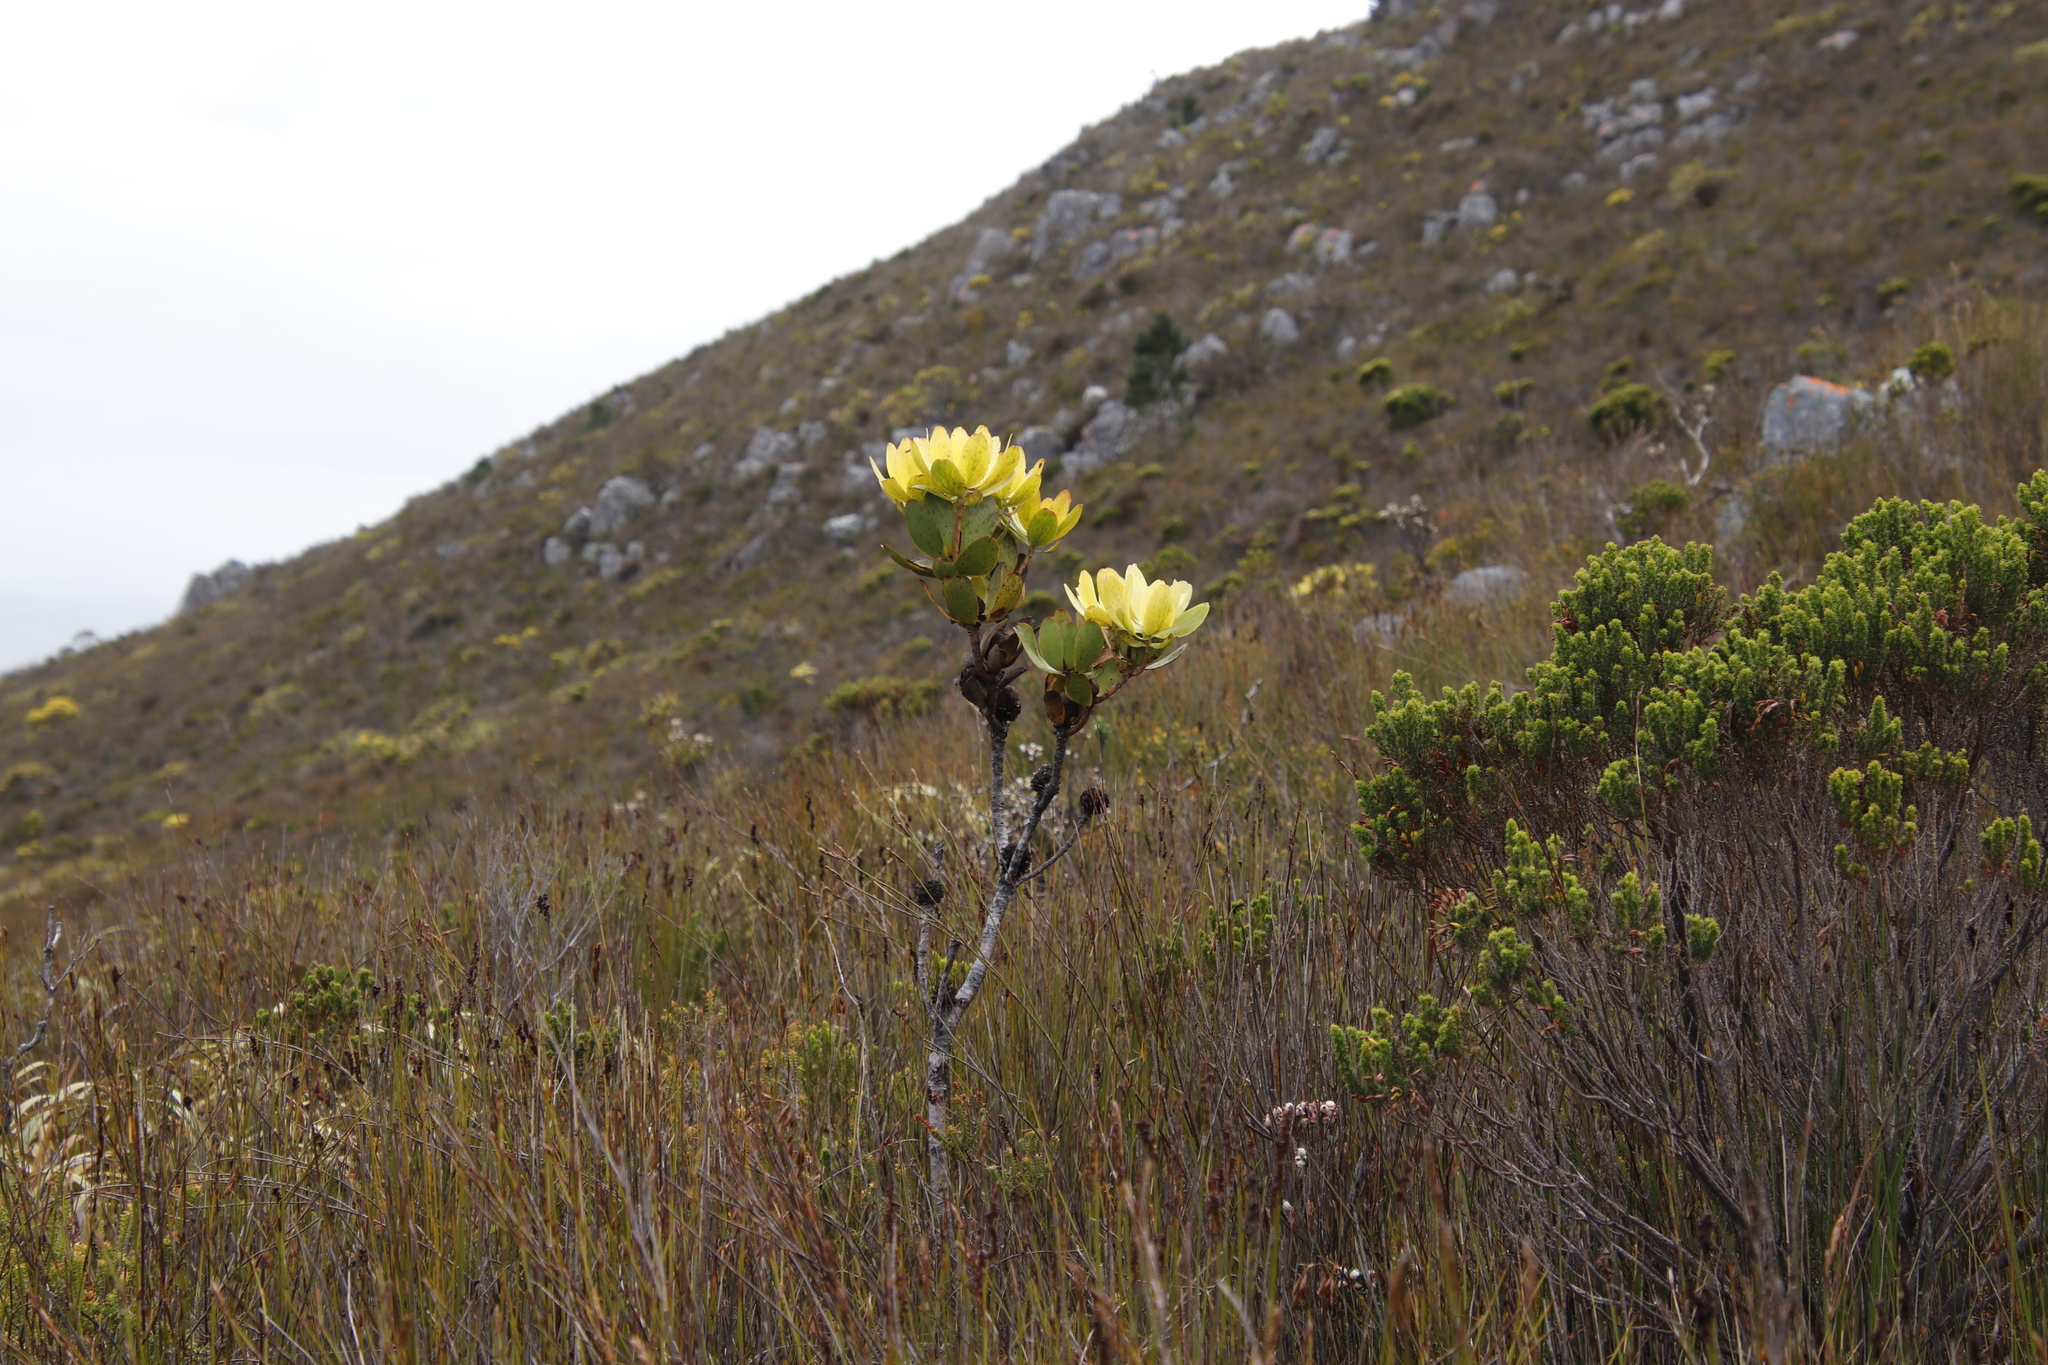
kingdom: Plantae
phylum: Tracheophyta
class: Magnoliopsida
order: Proteales
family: Proteaceae
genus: Leucadendron
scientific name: Leucadendron gandogeri
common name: Broad-leaf conebush
